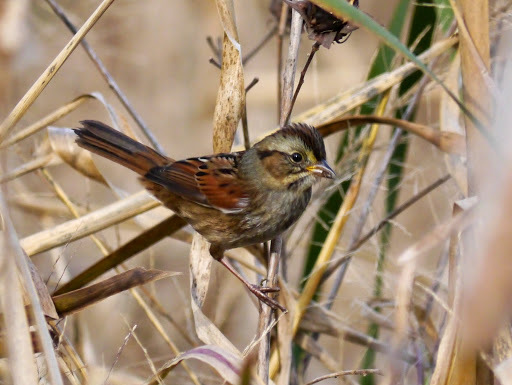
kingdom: Animalia
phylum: Chordata
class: Aves
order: Passeriformes
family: Passerellidae
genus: Melospiza
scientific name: Melospiza georgiana
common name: Swamp sparrow
